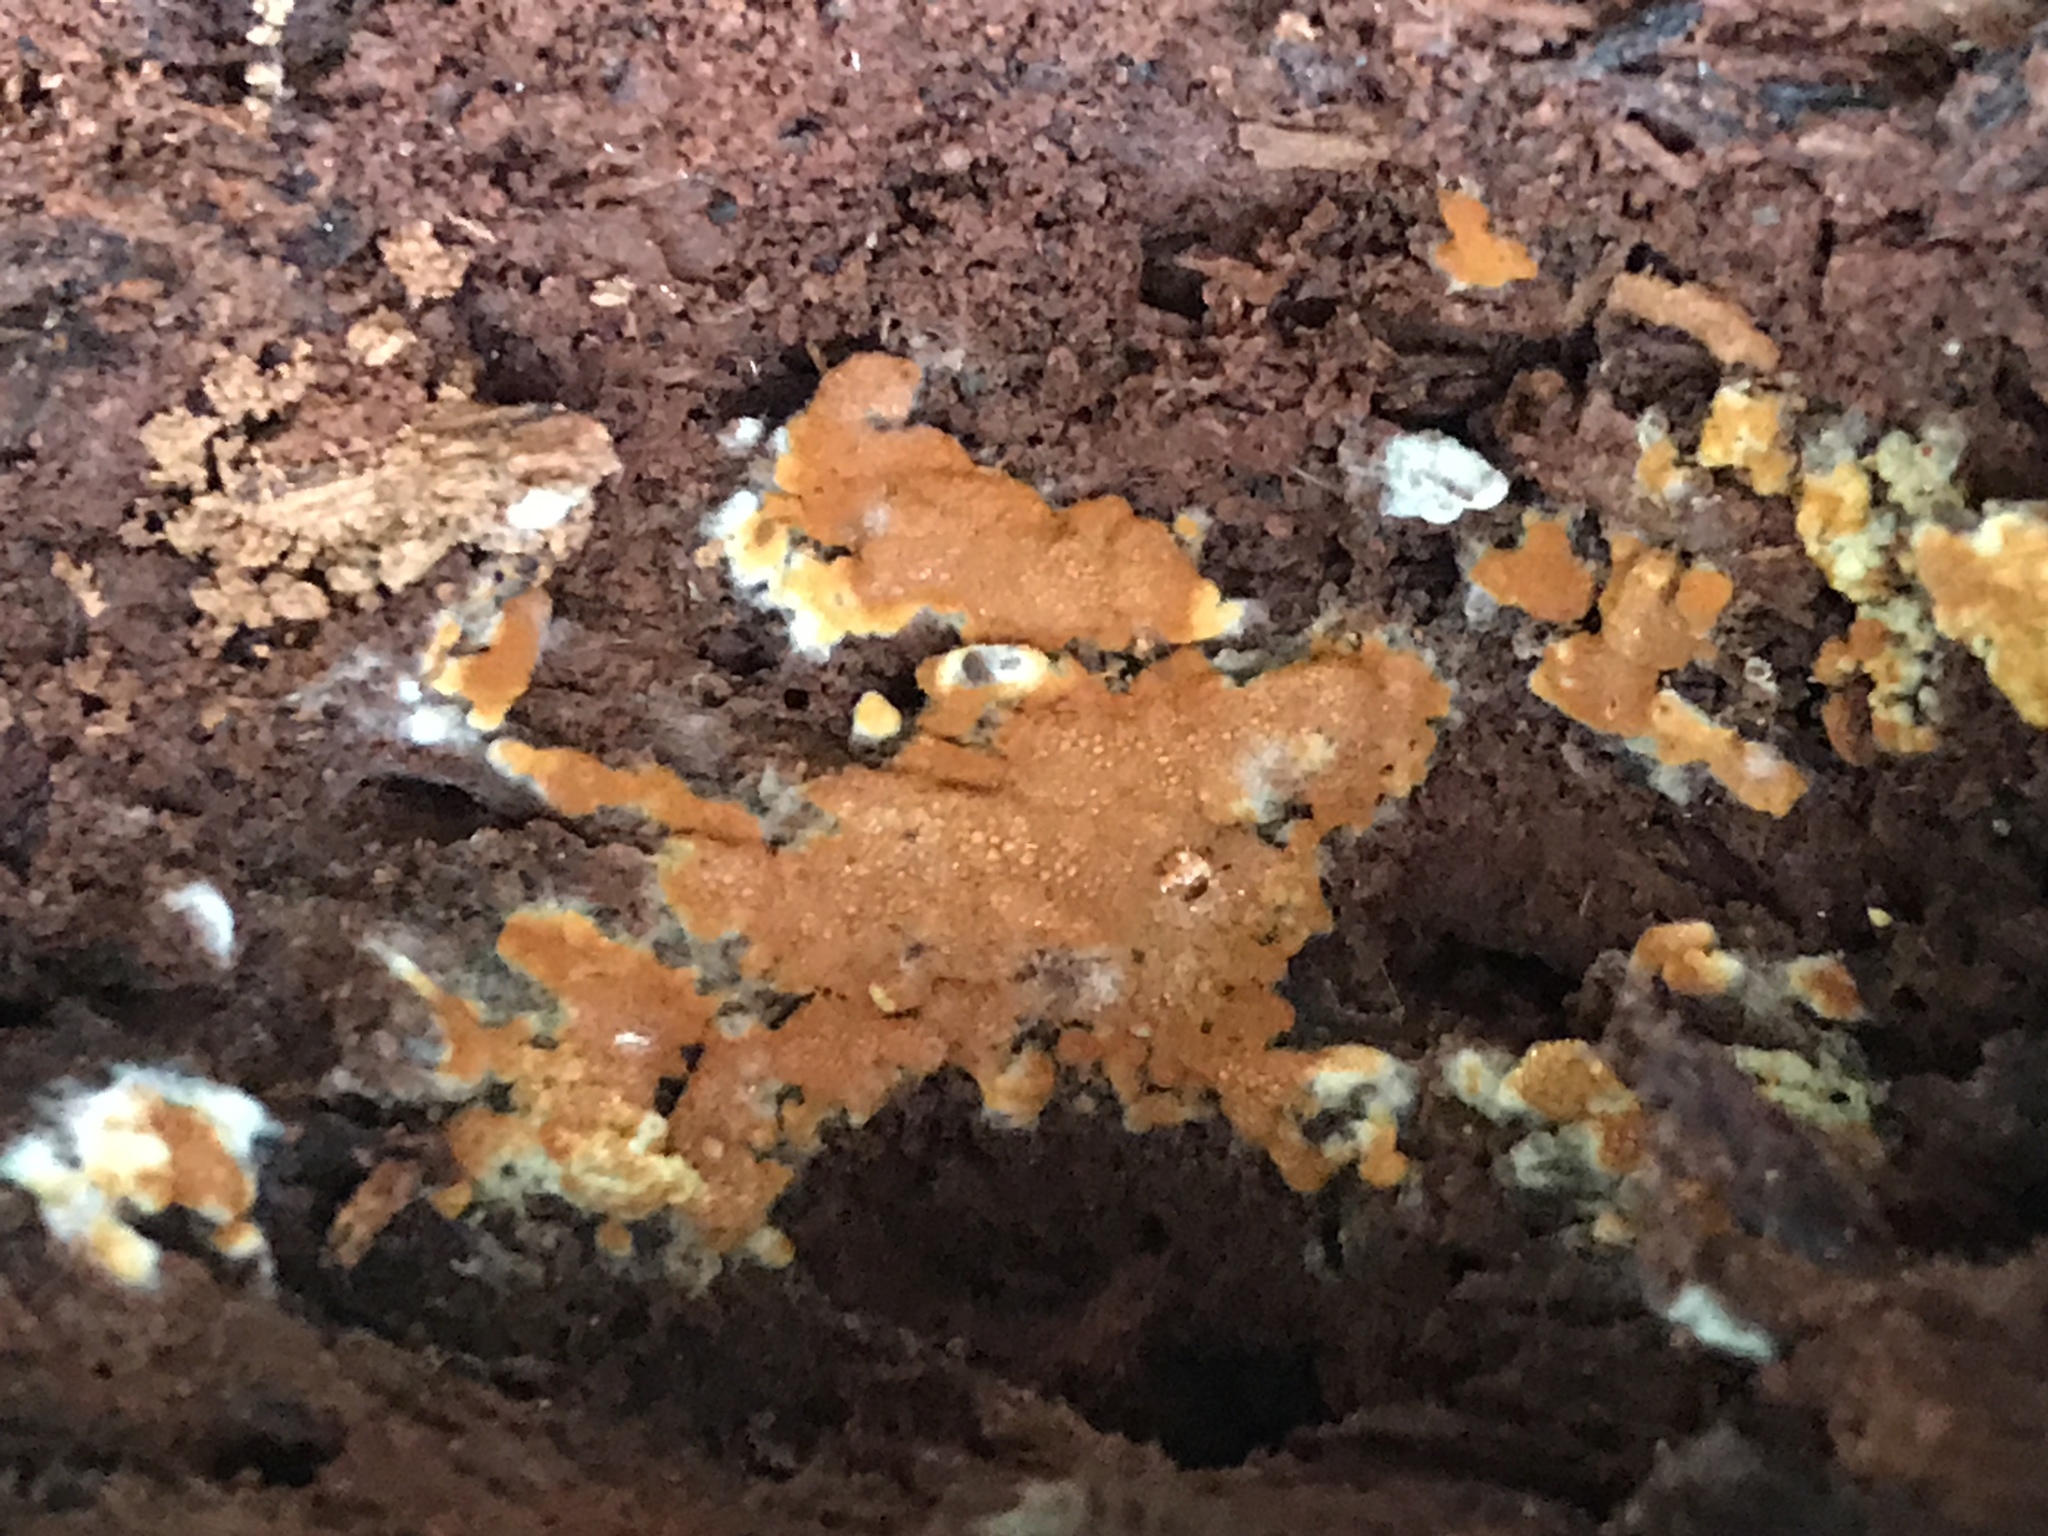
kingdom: Fungi
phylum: Basidiomycota
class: Agaricomycetes
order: Polyporales
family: Irpicaceae
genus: Ceriporia
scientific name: Ceriporia spissa
